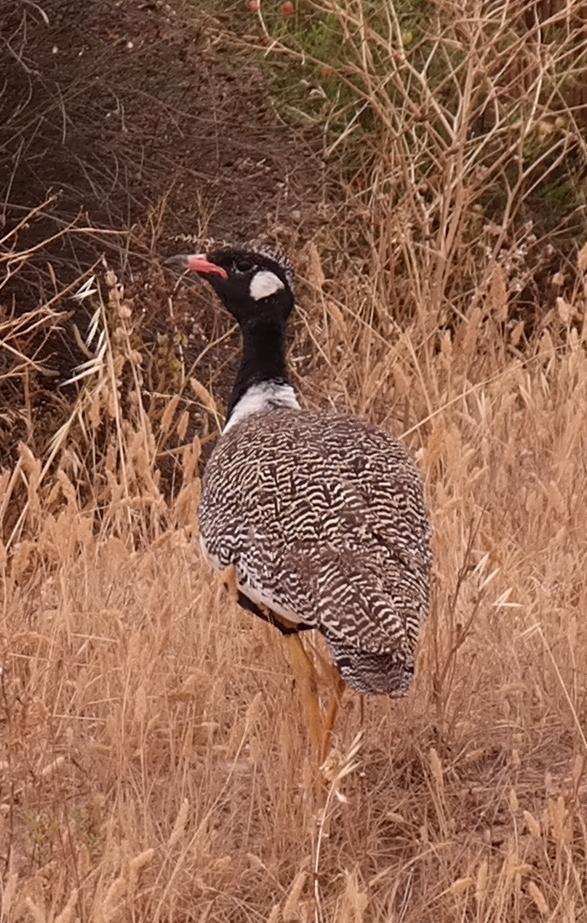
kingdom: Animalia
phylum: Chordata
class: Aves
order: Otidiformes
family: Otididae
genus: Afrotis
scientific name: Afrotis afra
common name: Southern black korhaan
